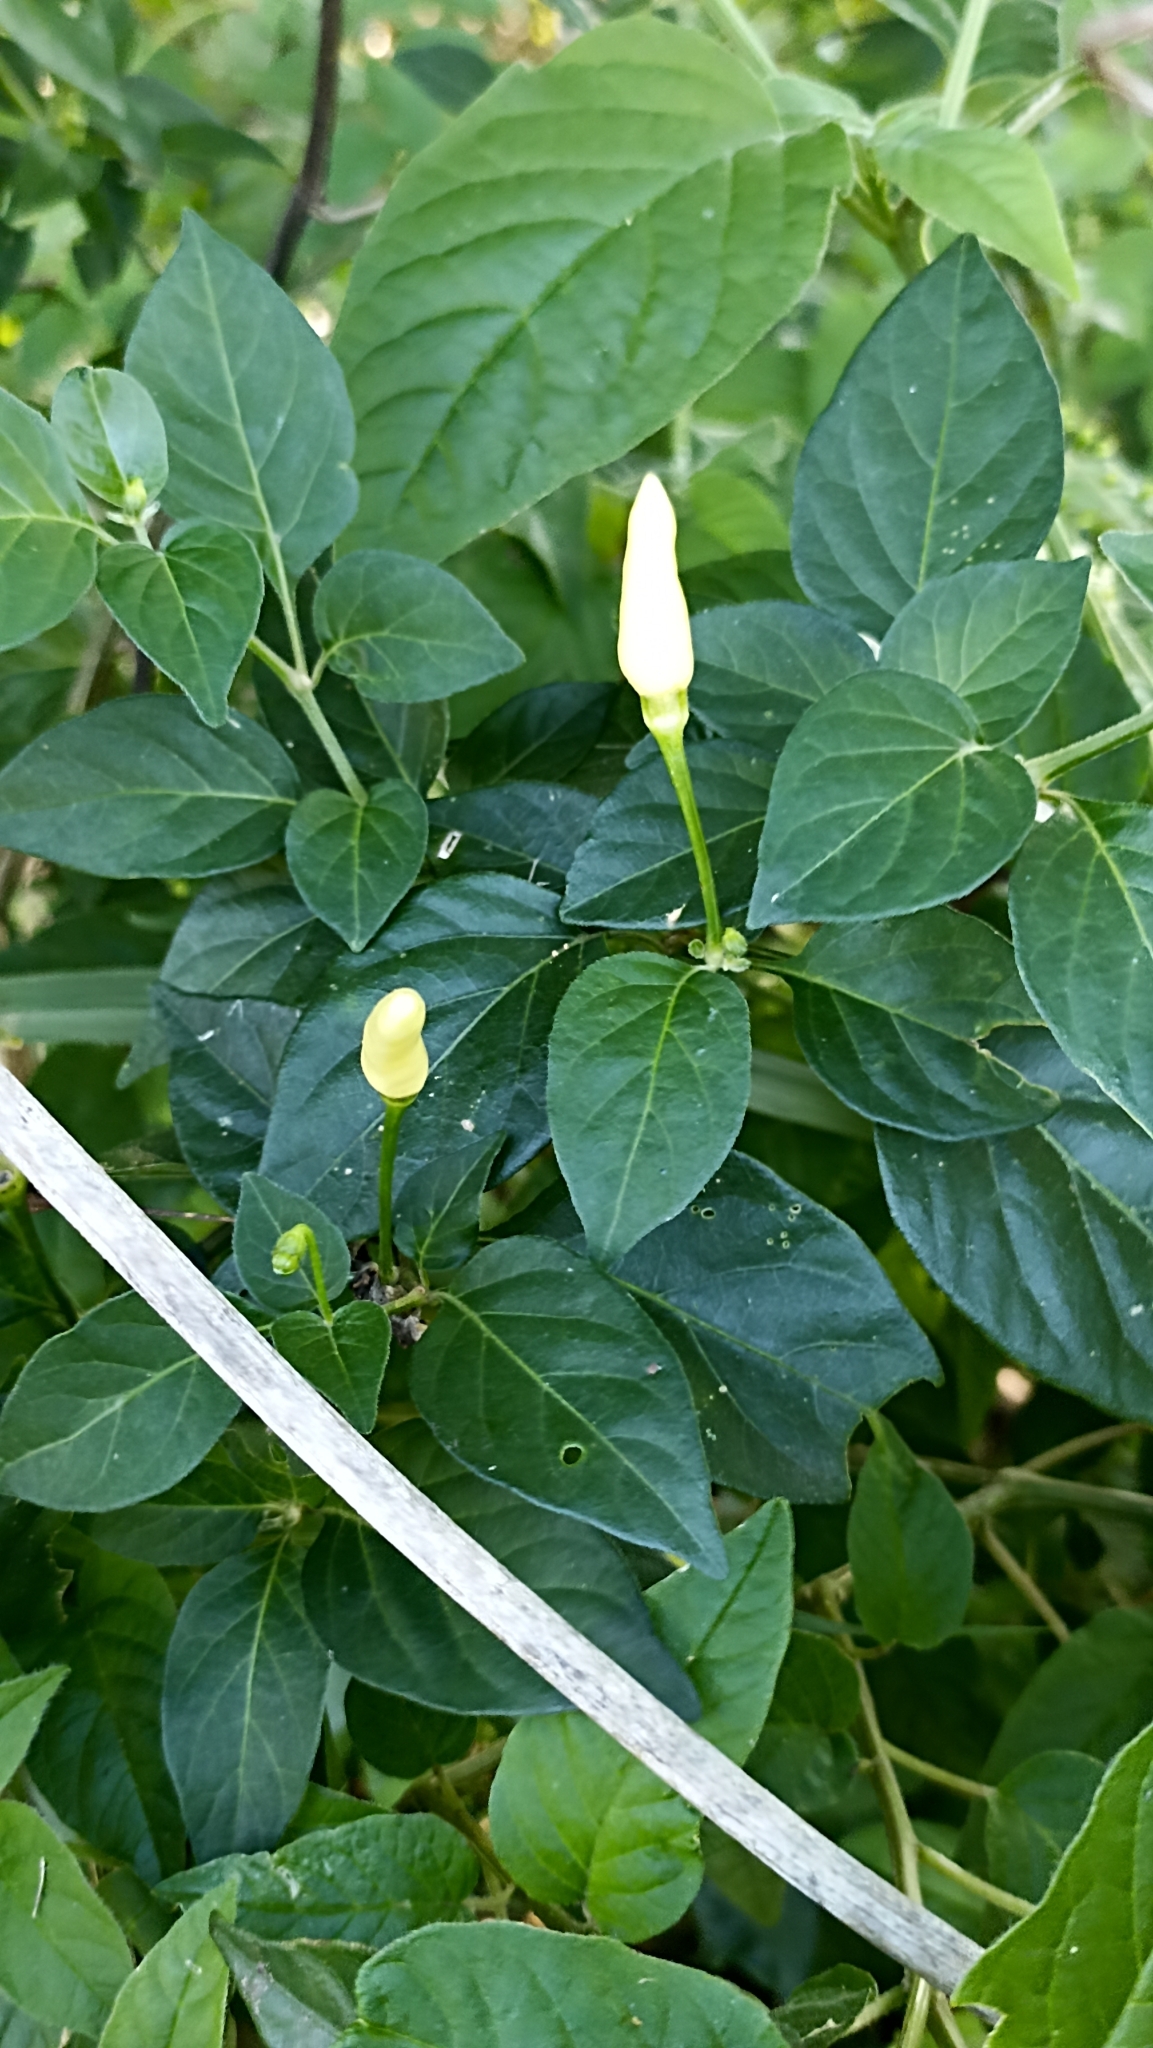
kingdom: Plantae
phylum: Tracheophyta
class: Magnoliopsida
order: Solanales
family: Solanaceae
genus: Capsicum
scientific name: Capsicum frutescens
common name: Bird pepper
